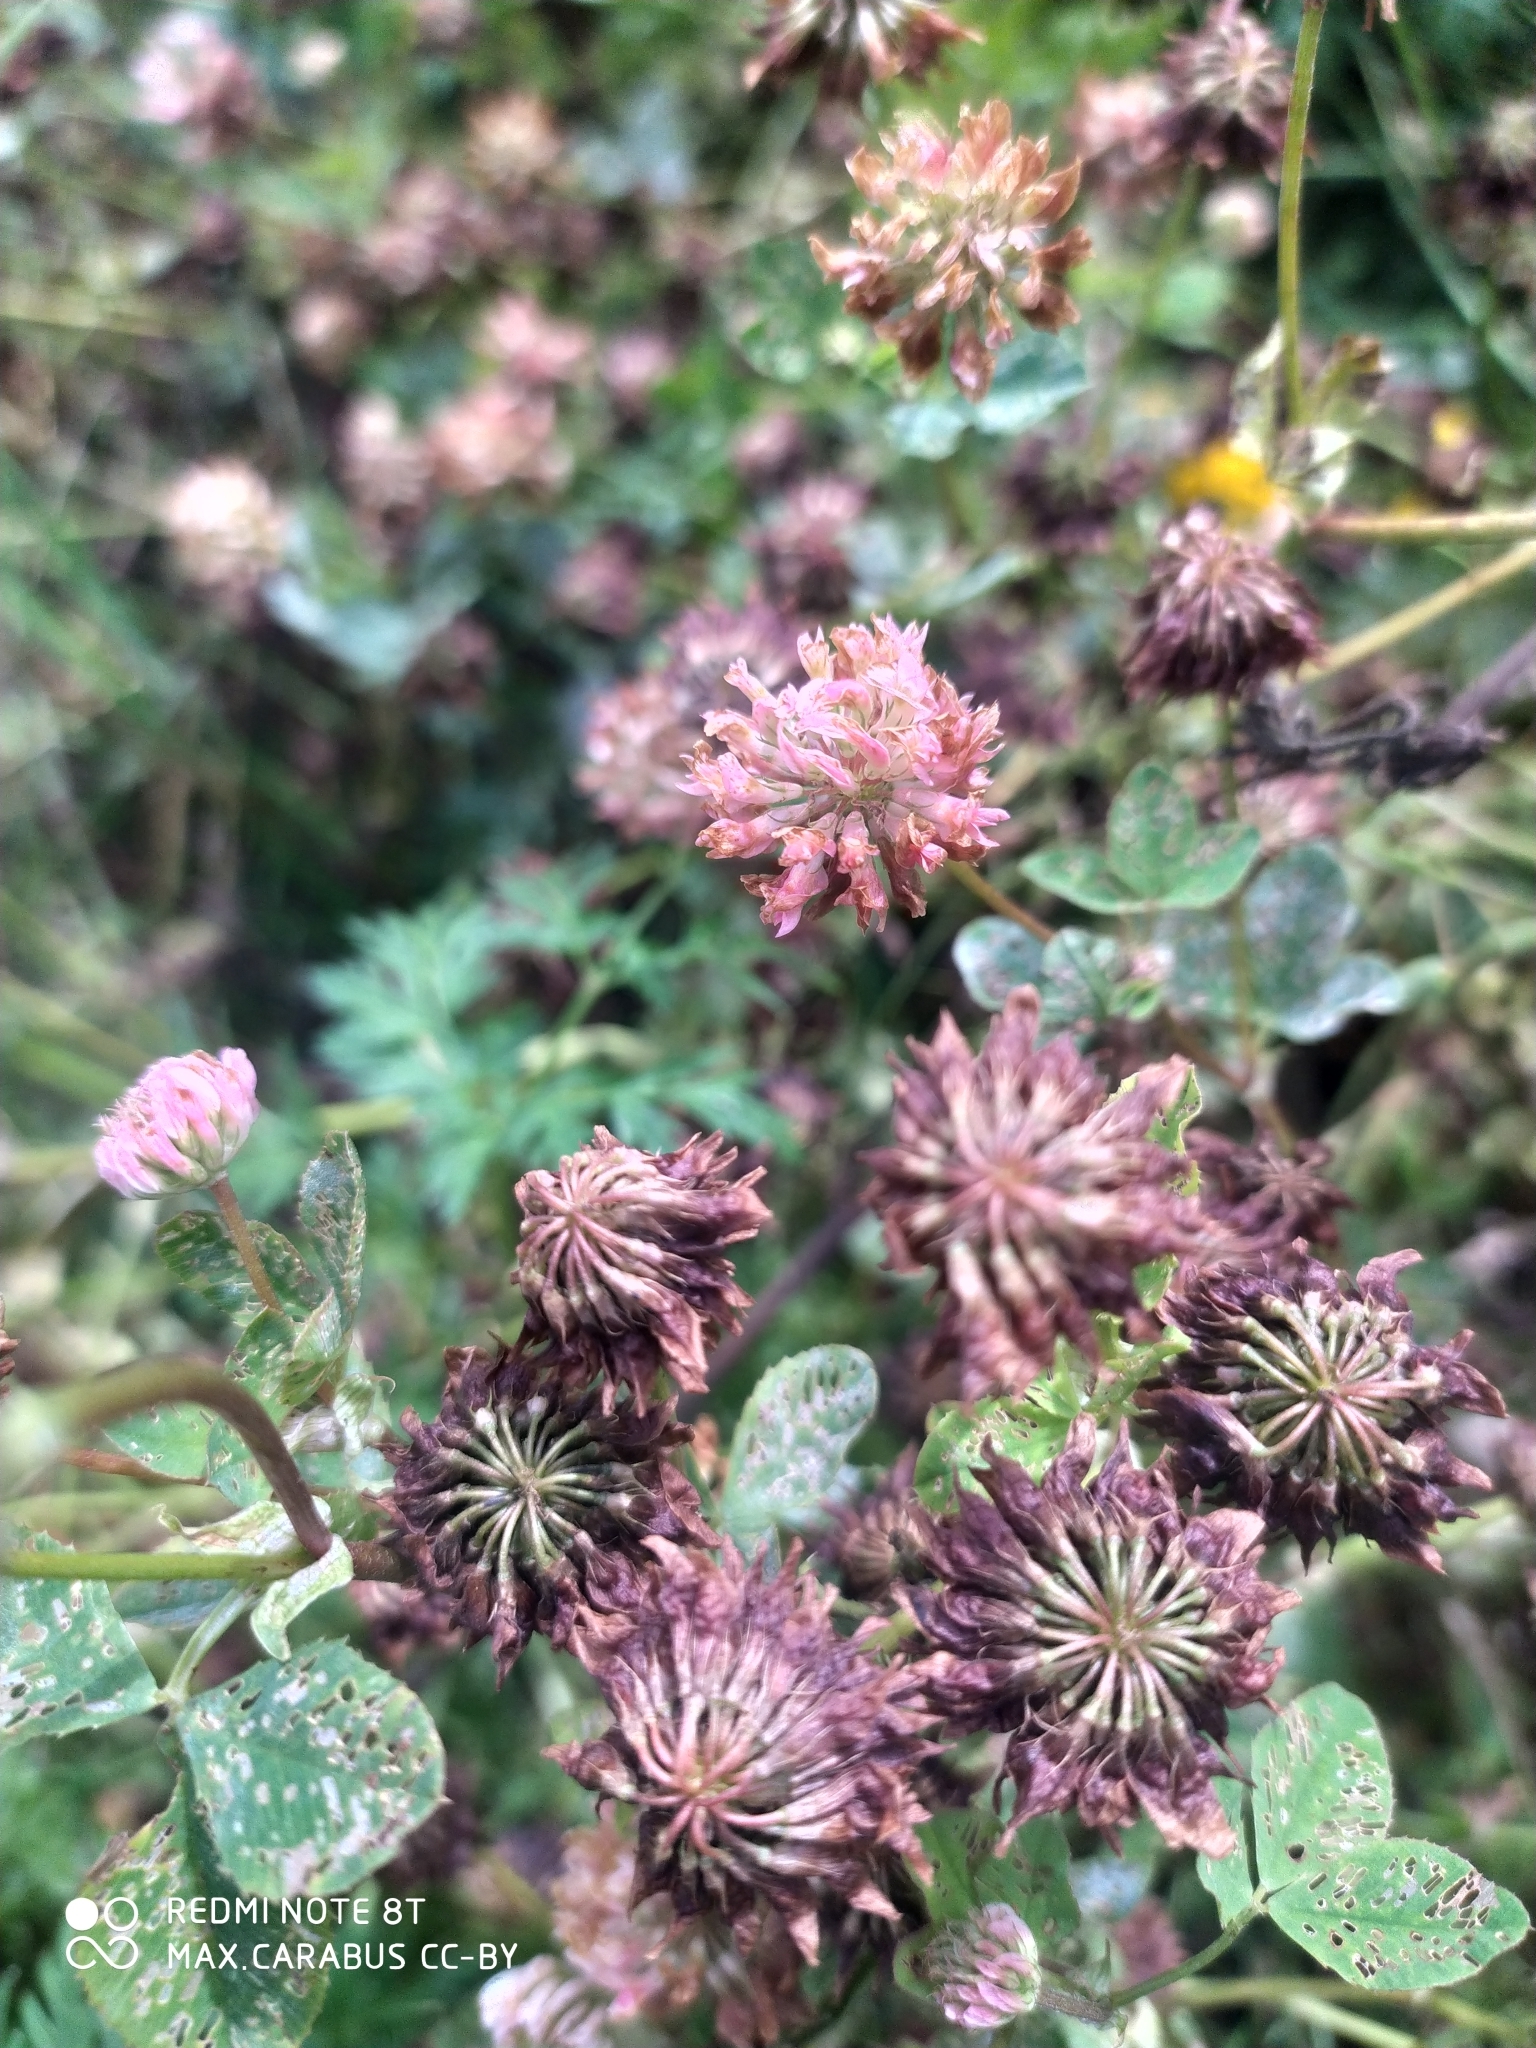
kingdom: Plantae
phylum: Tracheophyta
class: Magnoliopsida
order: Fabales
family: Fabaceae
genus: Trifolium
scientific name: Trifolium hybridum
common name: Alsike clover
